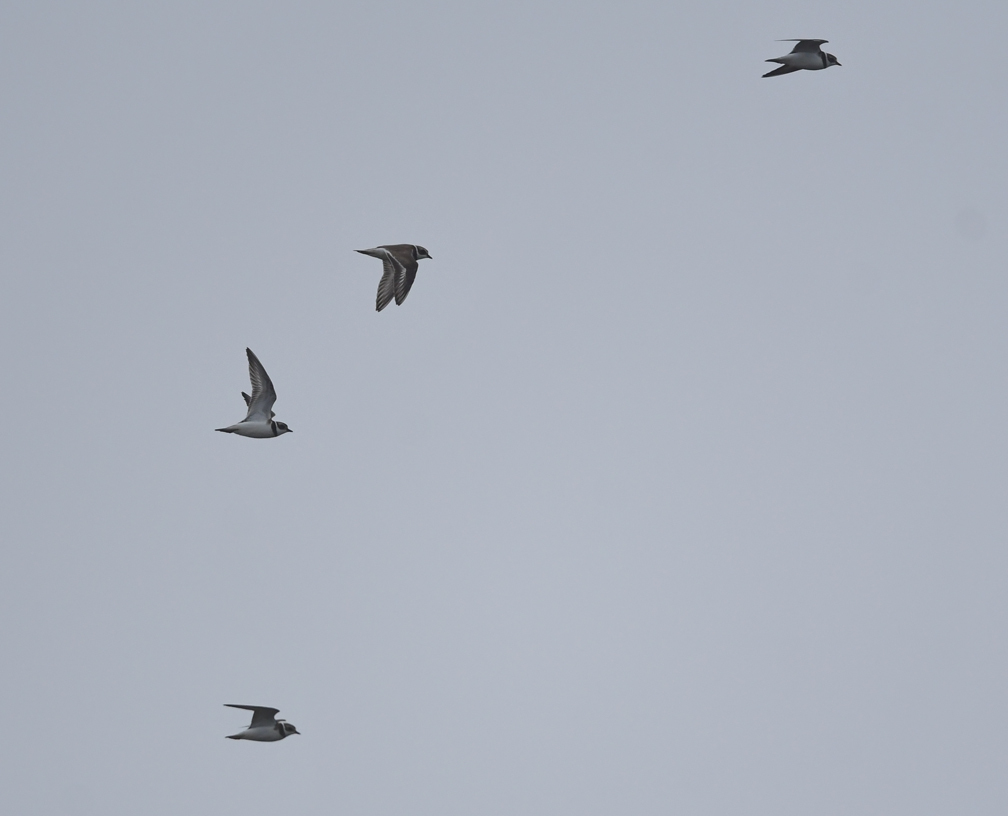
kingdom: Animalia
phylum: Chordata
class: Aves
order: Charadriiformes
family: Charadriidae
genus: Charadrius
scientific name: Charadrius semipalmatus
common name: Semipalmated plover
